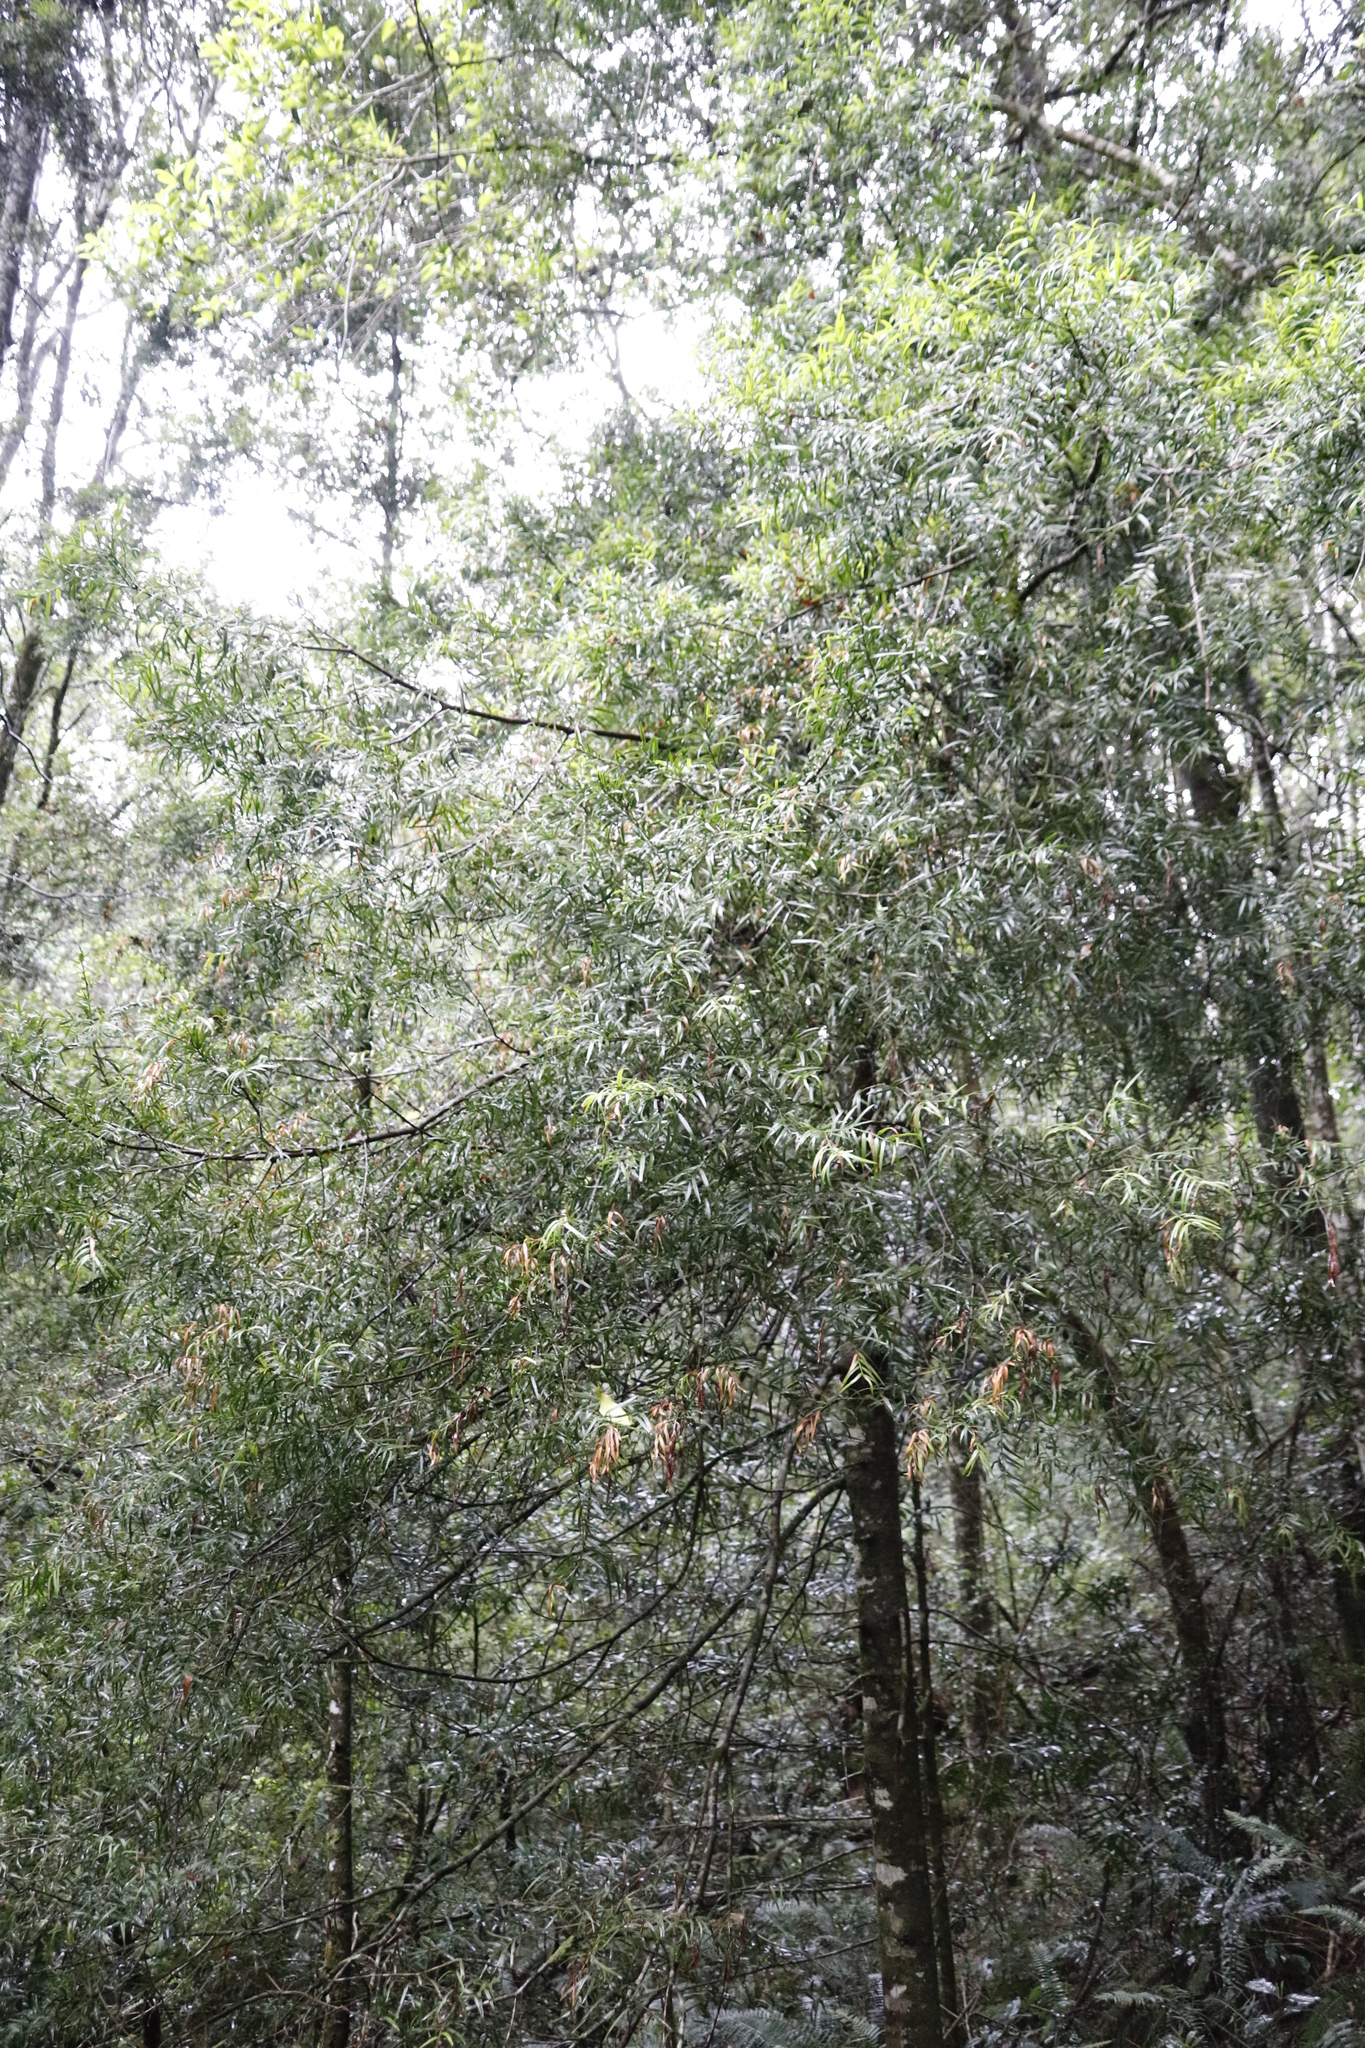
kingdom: Plantae
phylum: Tracheophyta
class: Pinopsida
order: Pinales
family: Podocarpaceae
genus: Afrocarpus
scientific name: Afrocarpus falcatus
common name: Bastard yellowwood
